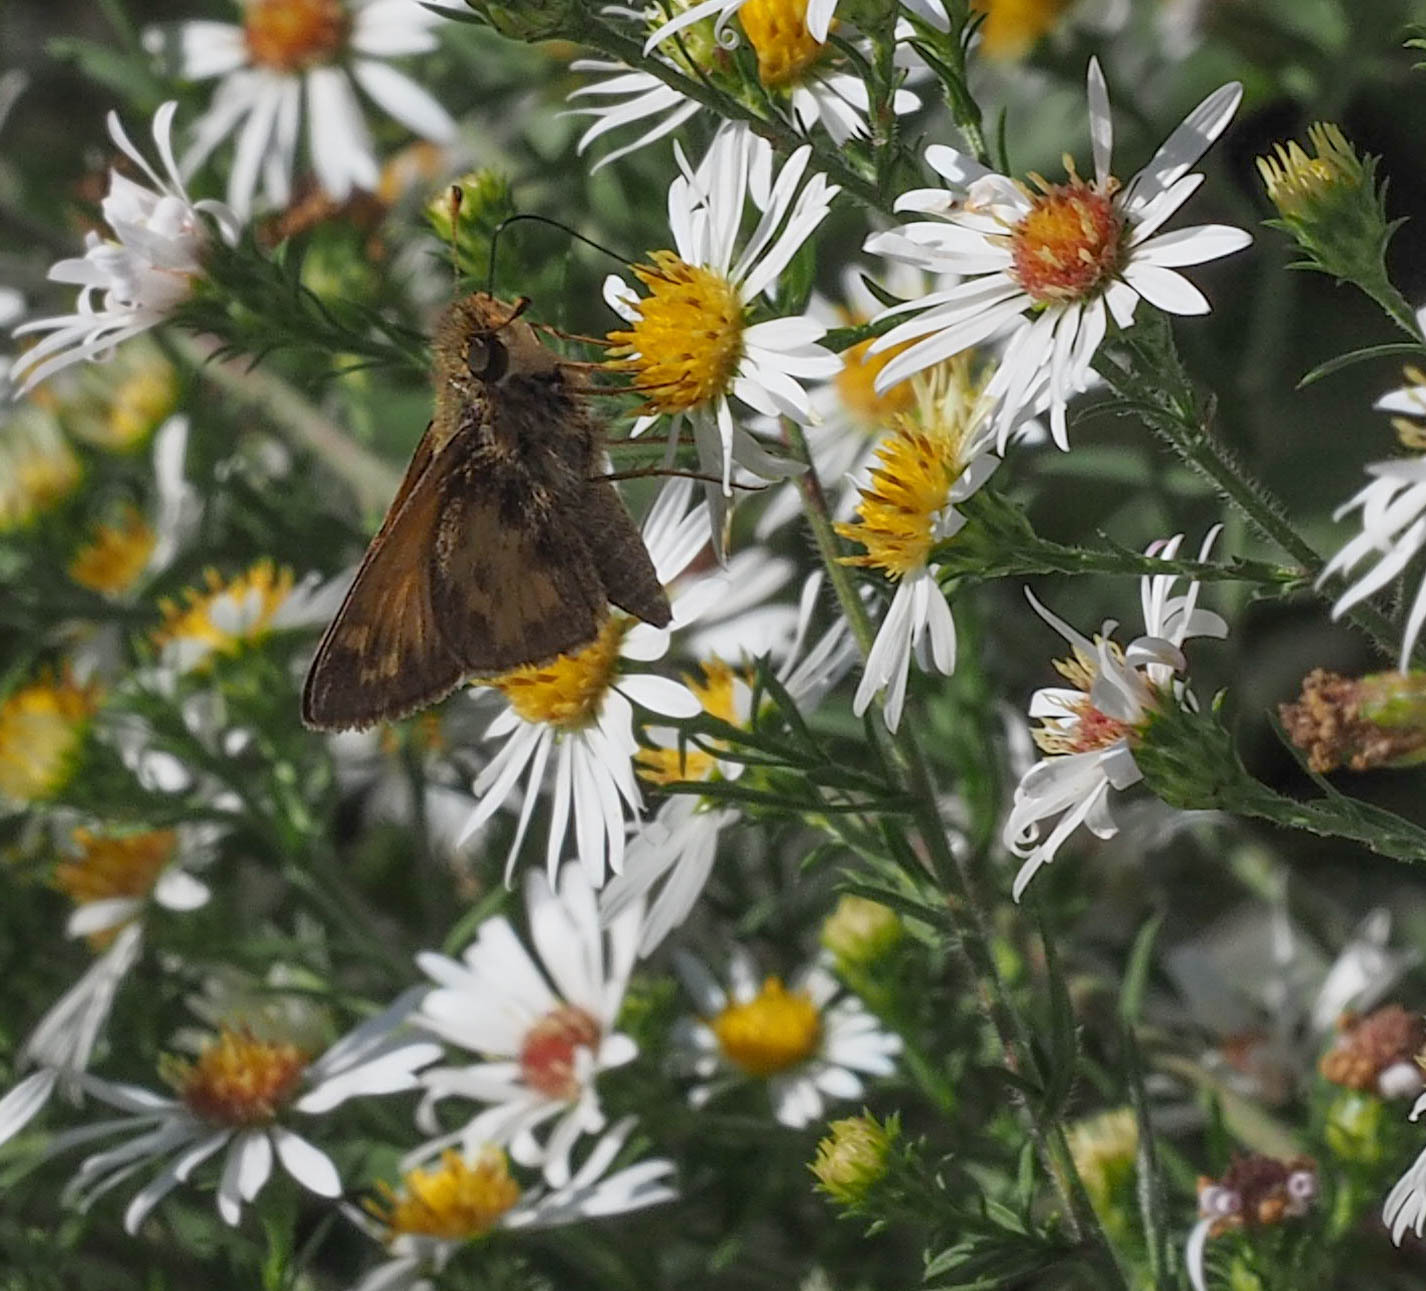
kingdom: Animalia
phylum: Arthropoda
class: Insecta
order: Lepidoptera
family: Hesperiidae
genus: Atalopedes
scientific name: Atalopedes
